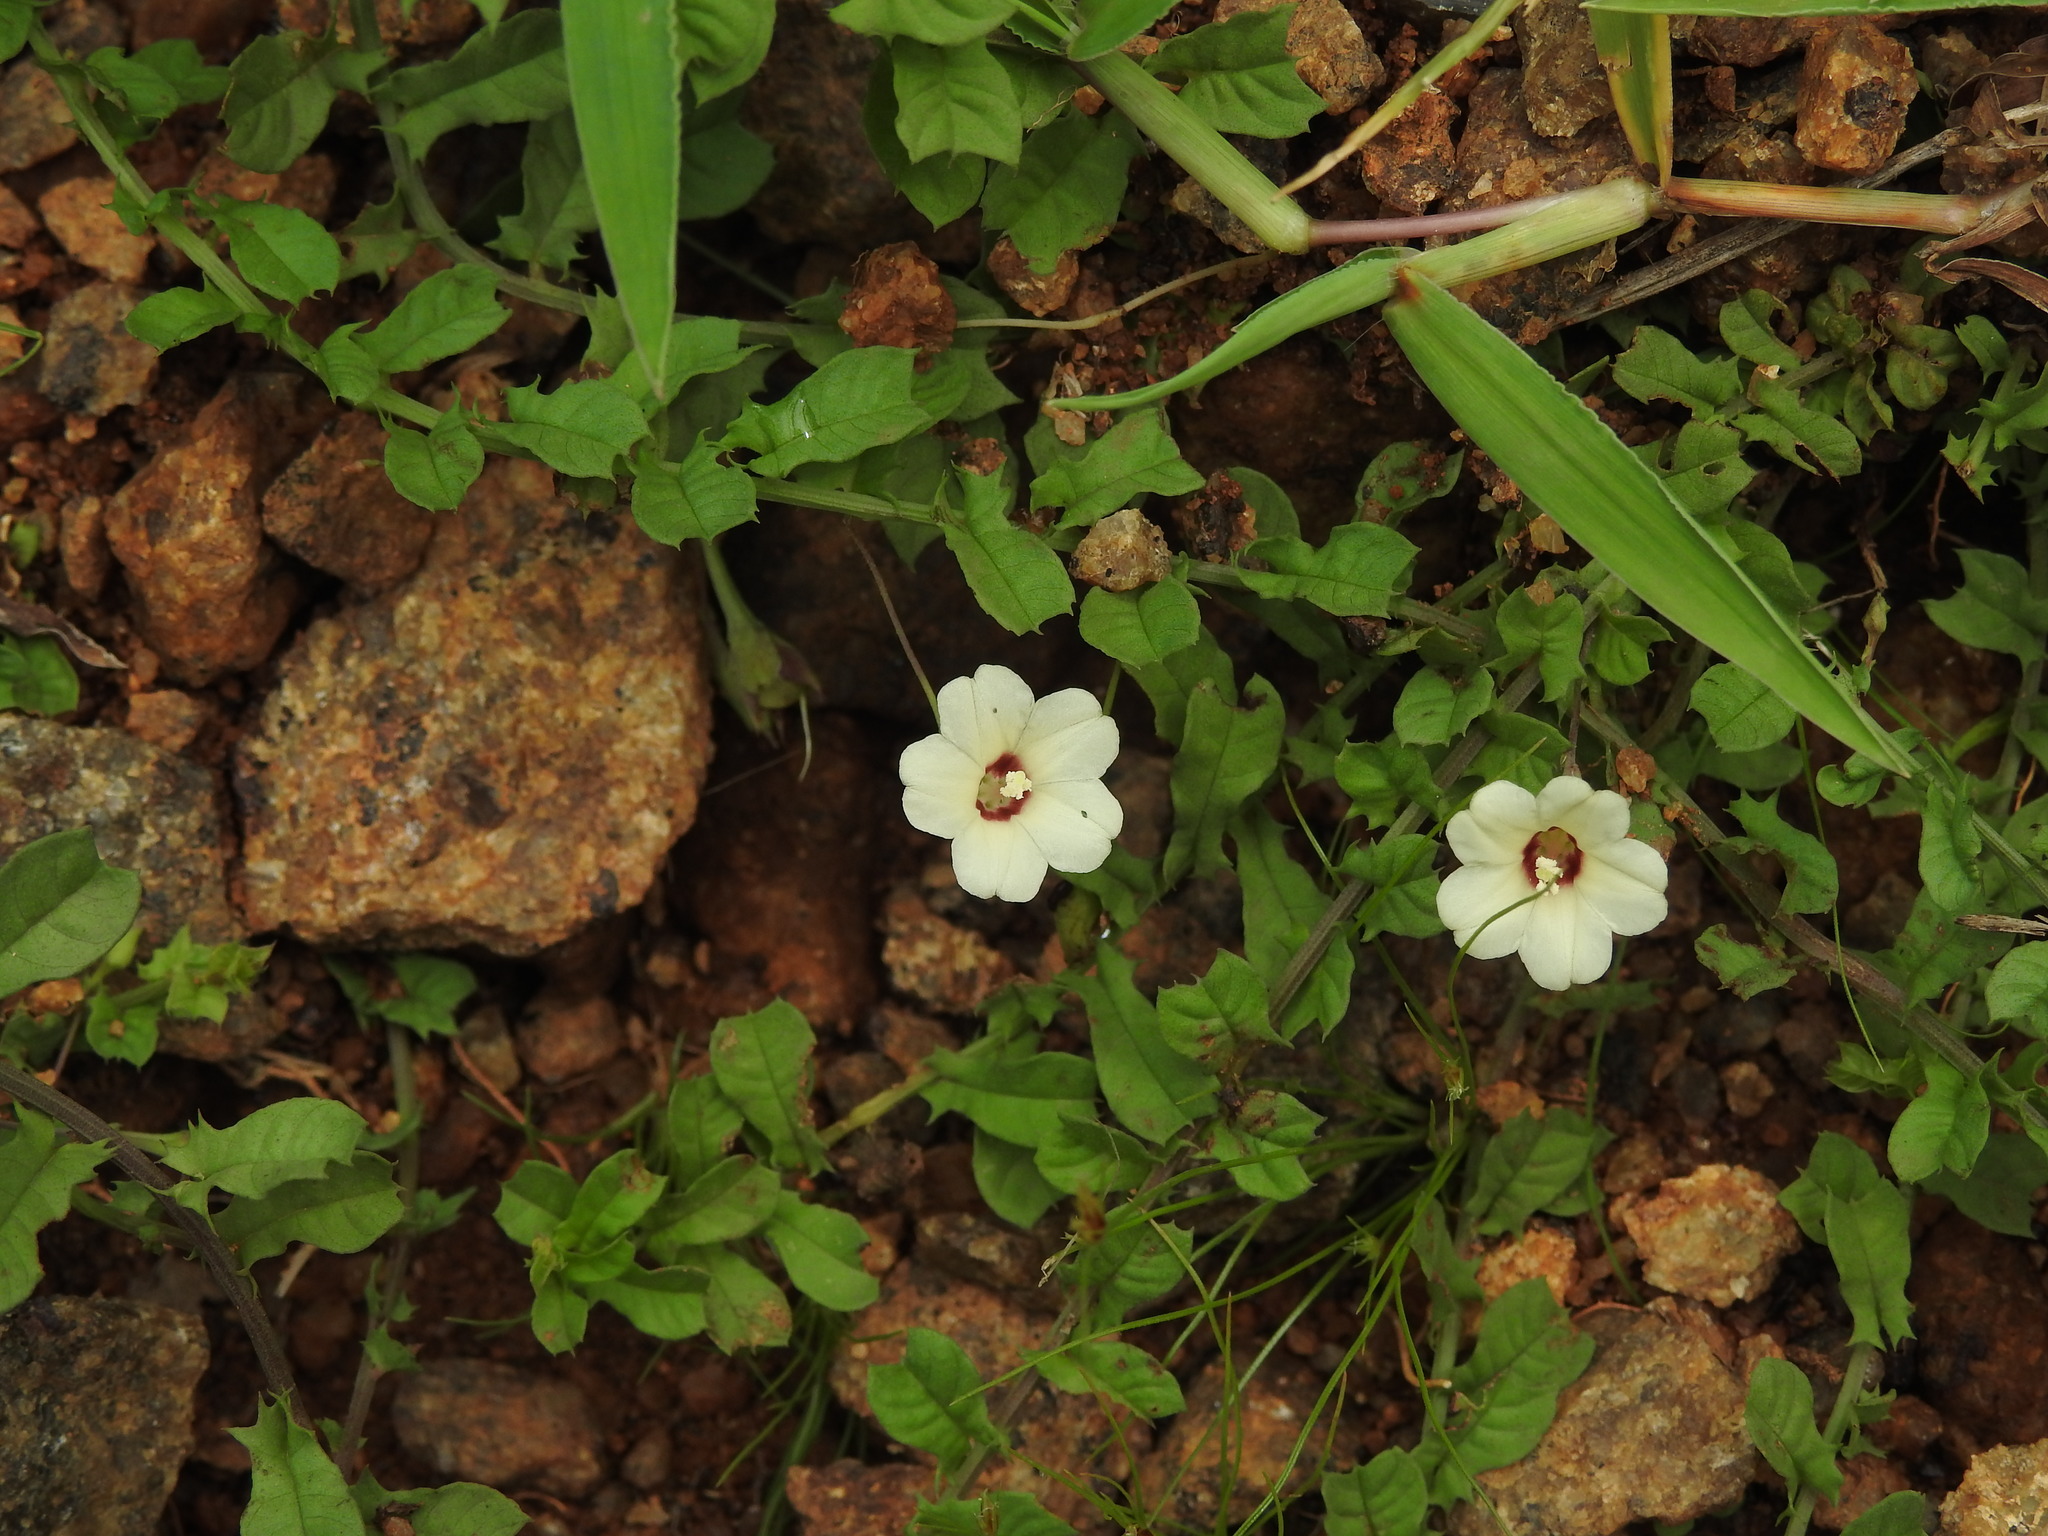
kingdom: Plantae
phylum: Tracheophyta
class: Magnoliopsida
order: Solanales
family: Convolvulaceae
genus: Xenostegia
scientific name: Xenostegia tridentata
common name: African morningvine
